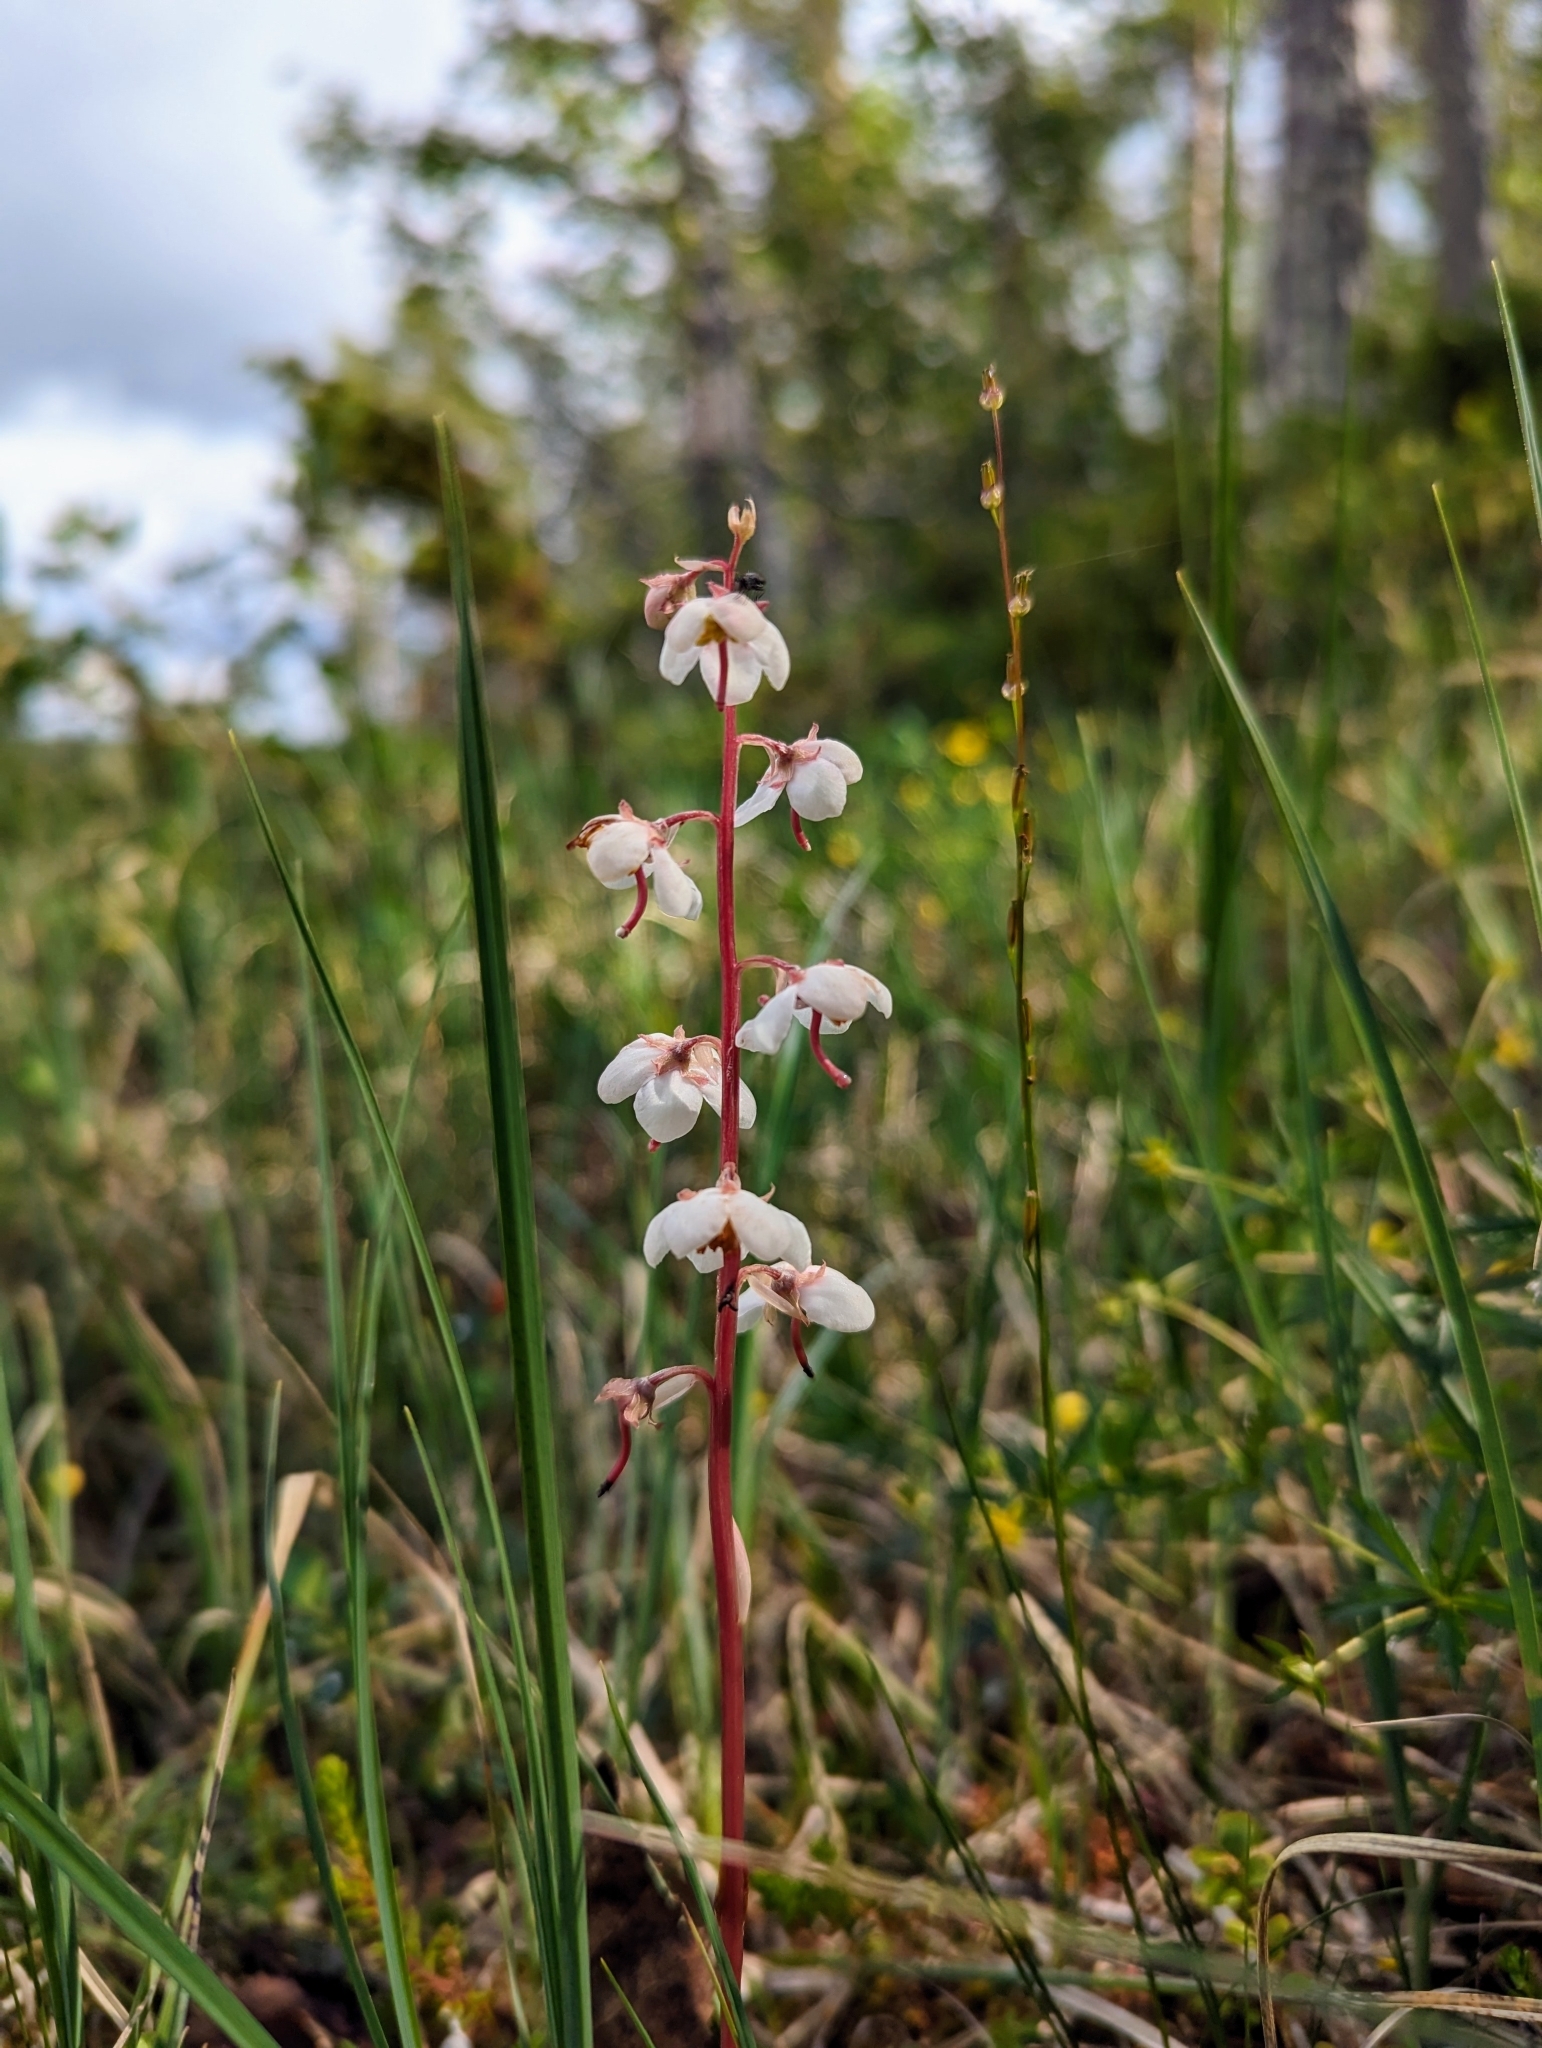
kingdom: Plantae
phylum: Tracheophyta
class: Magnoliopsida
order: Ericales
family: Ericaceae
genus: Pyrola
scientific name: Pyrola rotundifolia
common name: Round-leaved wintergreen
